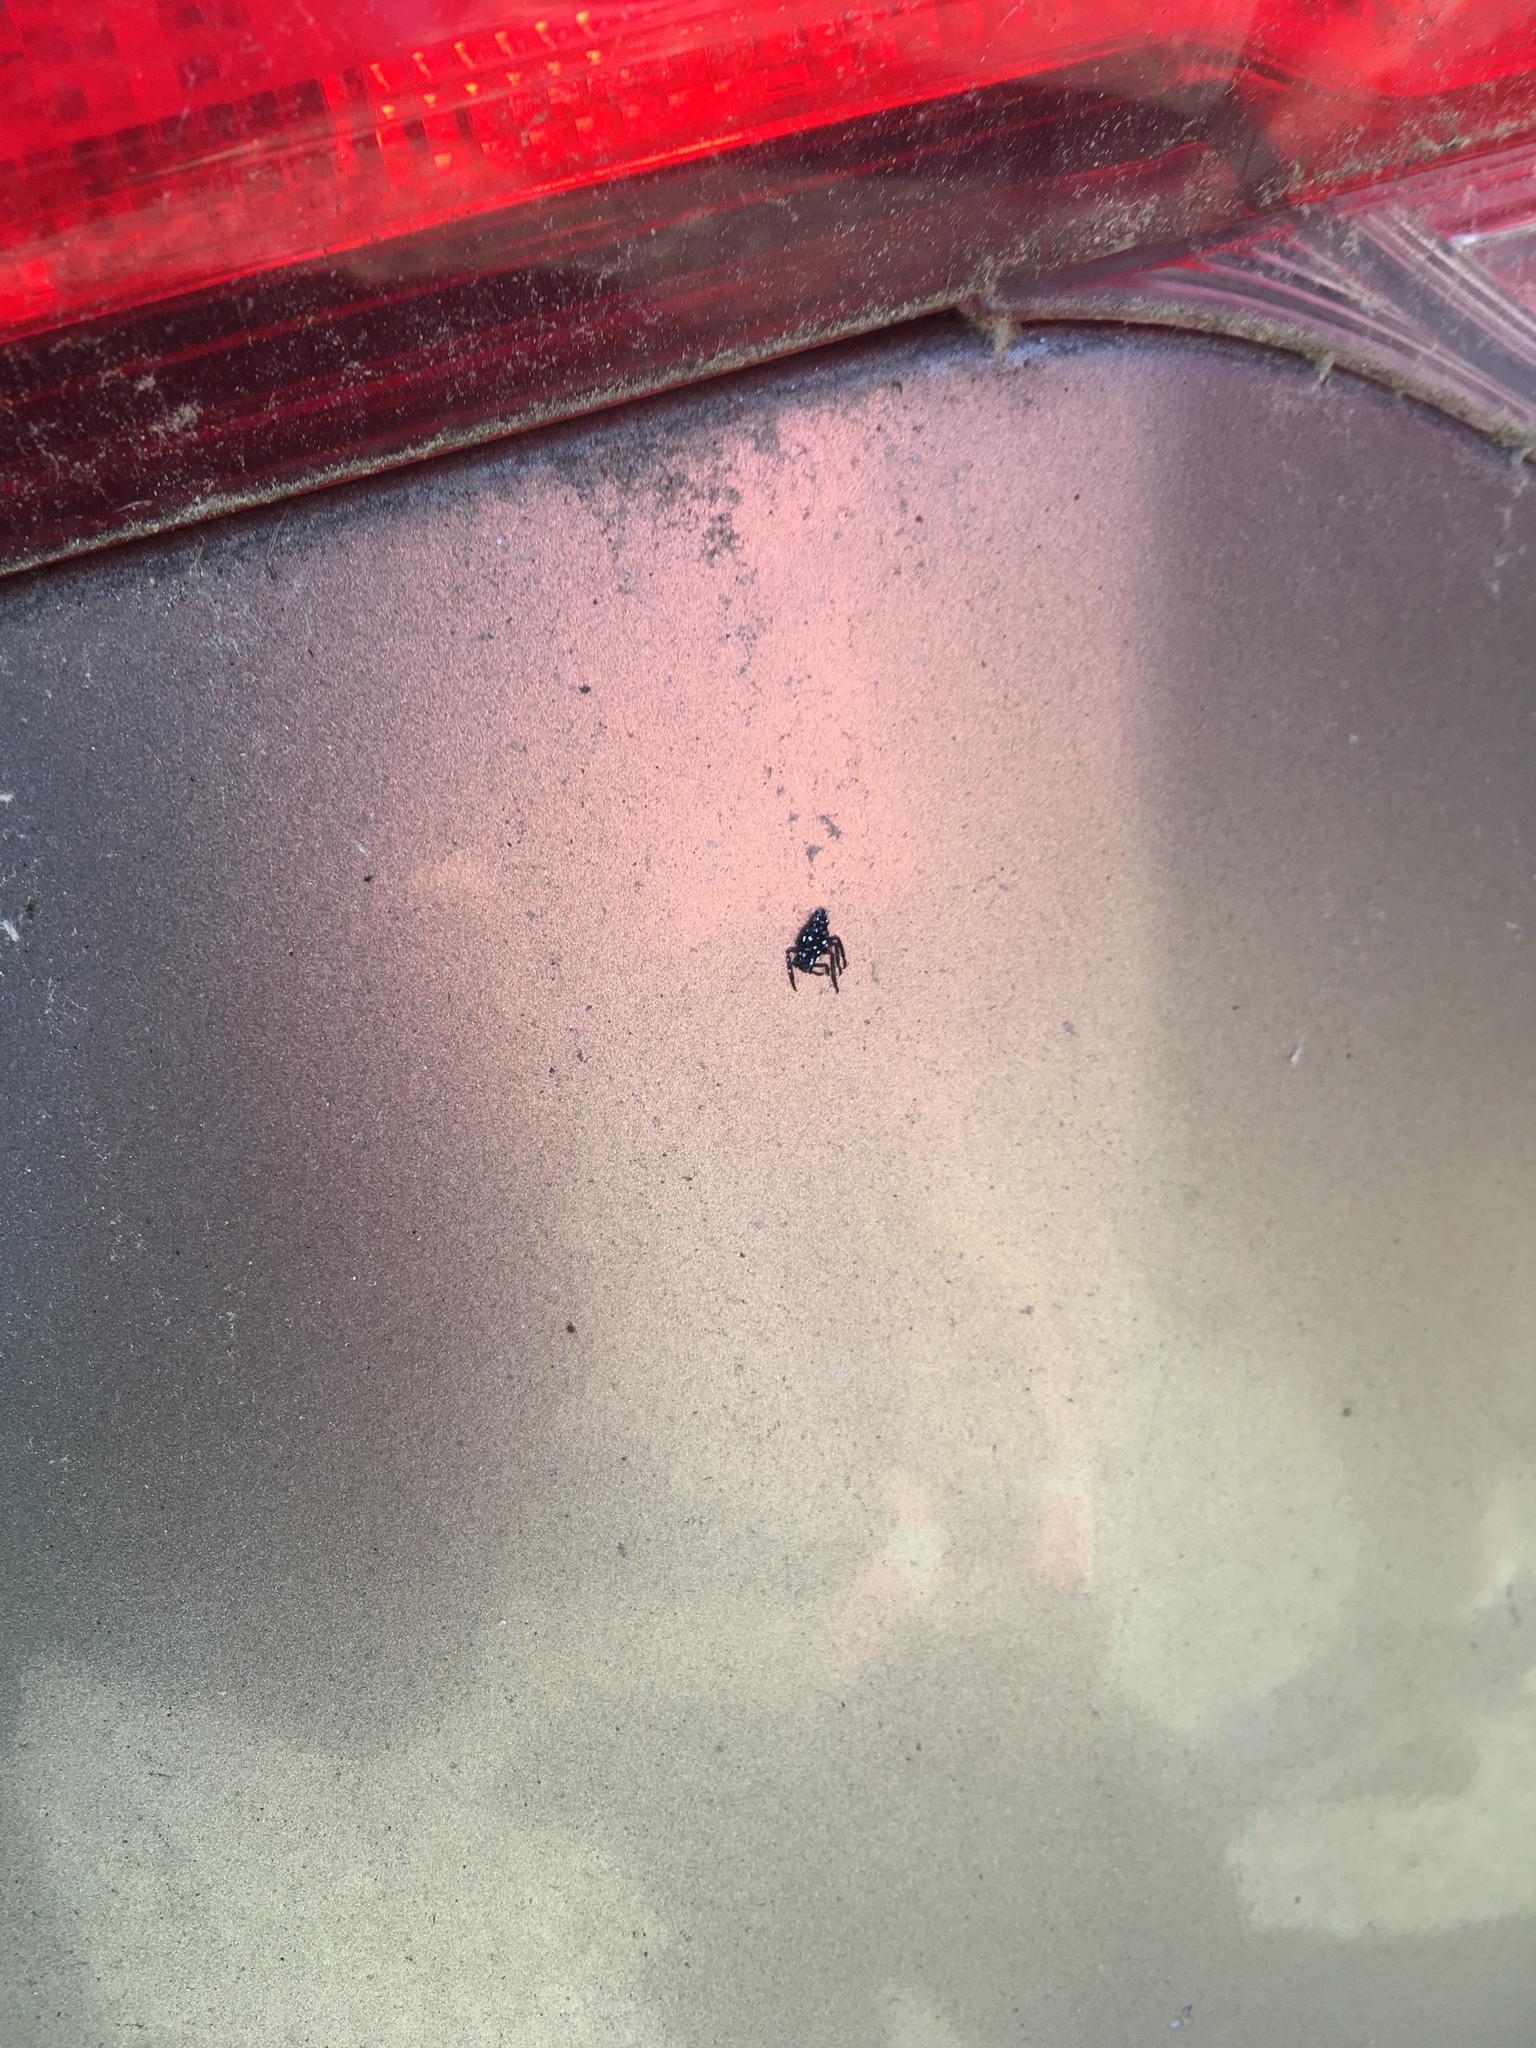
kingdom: Animalia
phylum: Arthropoda
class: Insecta
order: Hemiptera
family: Fulgoridae
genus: Lycorma
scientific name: Lycorma delicatula
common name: Spotted lanternfly
